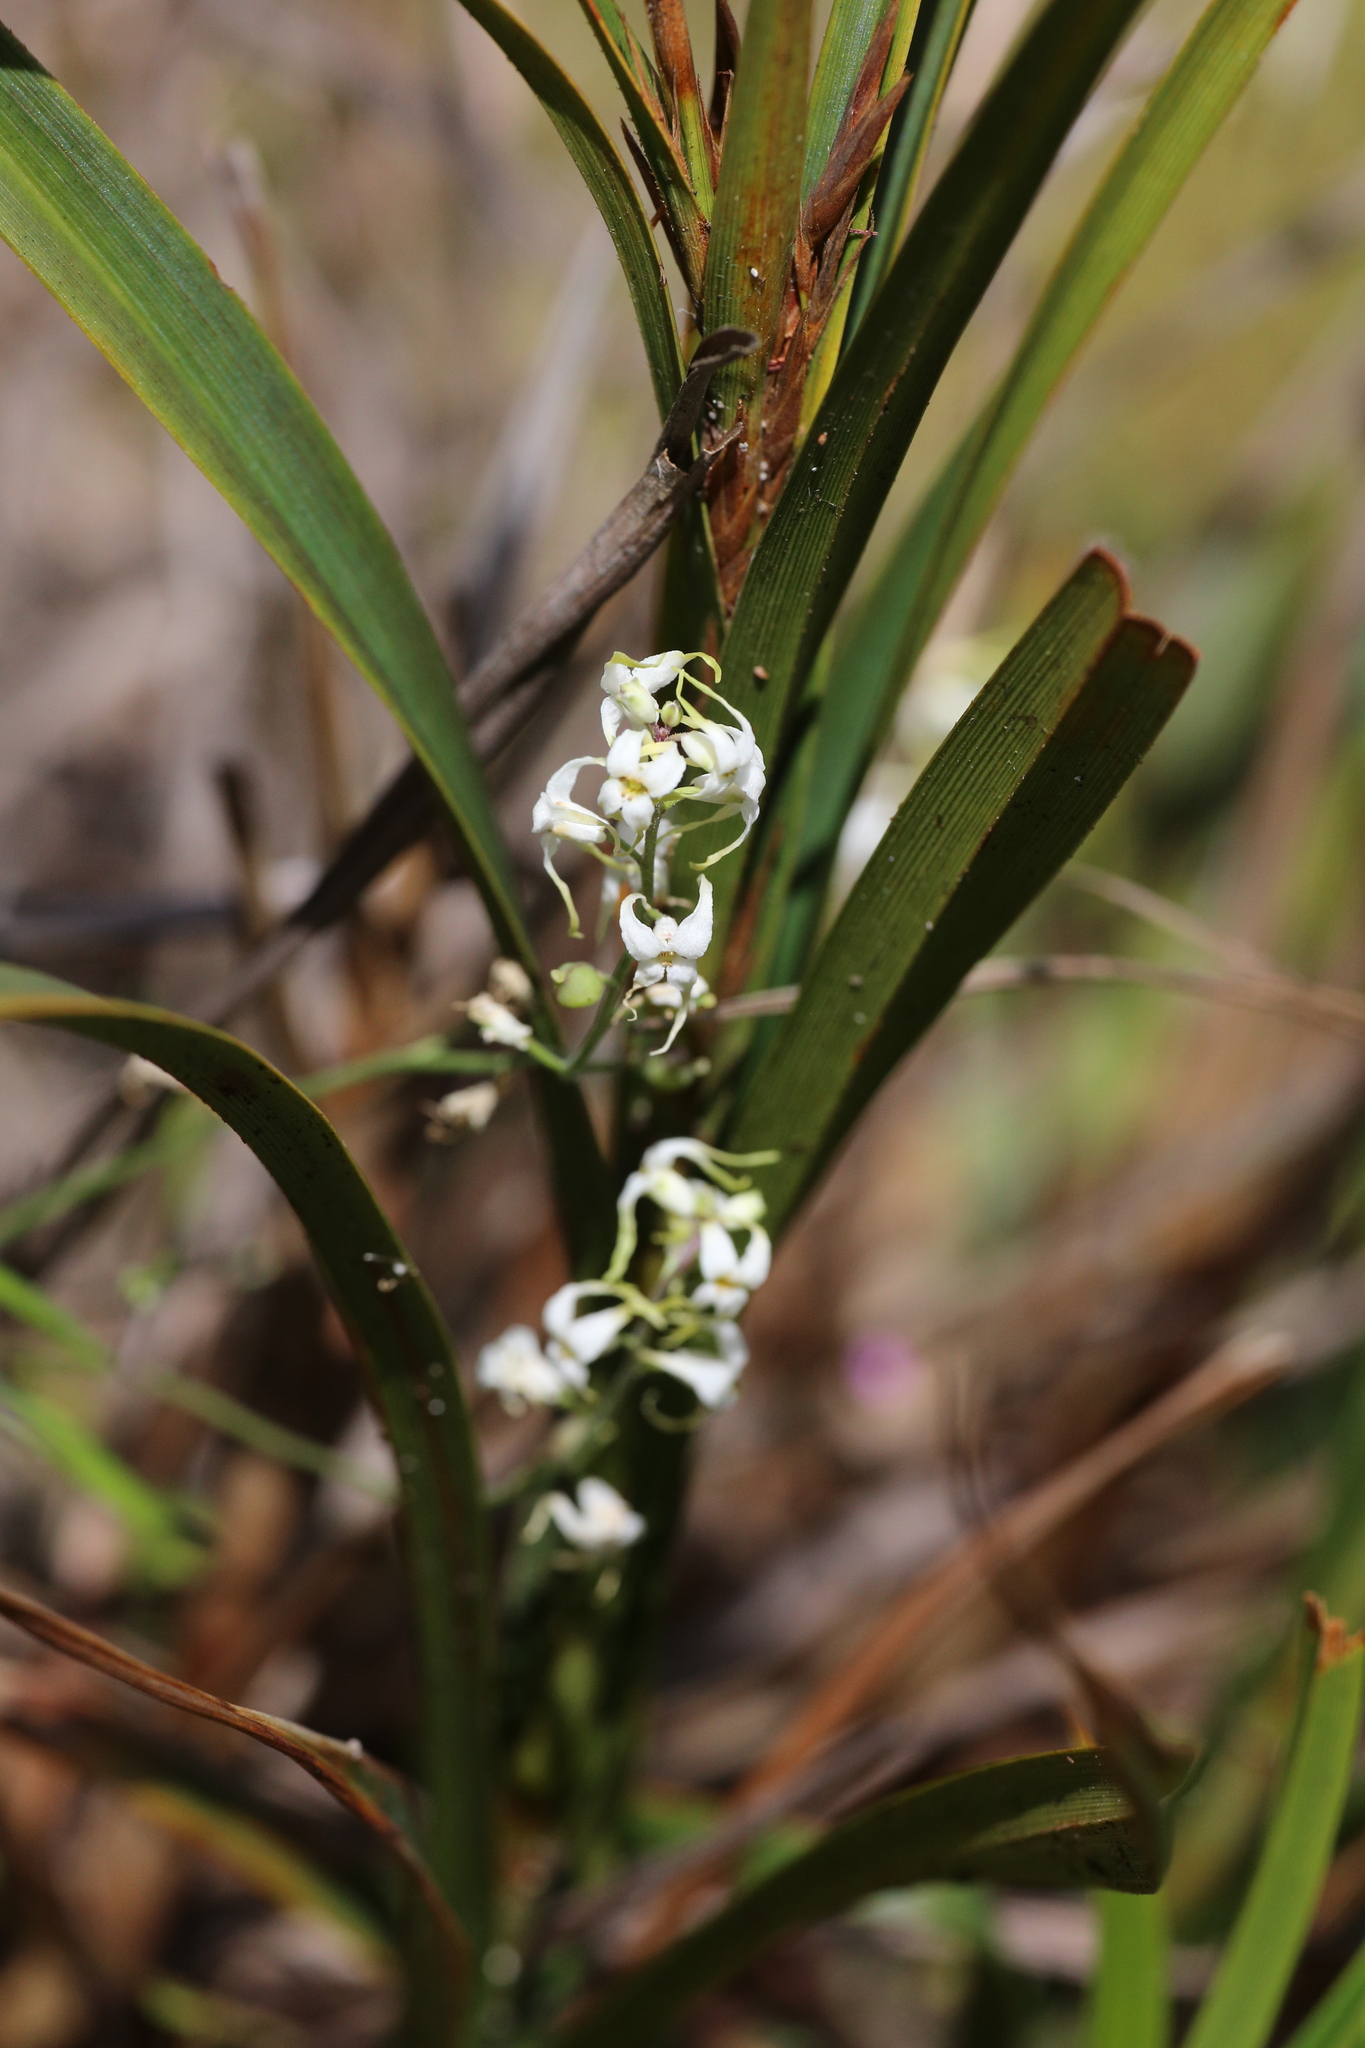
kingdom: Plantae
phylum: Tracheophyta
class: Magnoliopsida
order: Brassicales
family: Brassicaceae
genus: Stenopetalum
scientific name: Stenopetalum robustum
